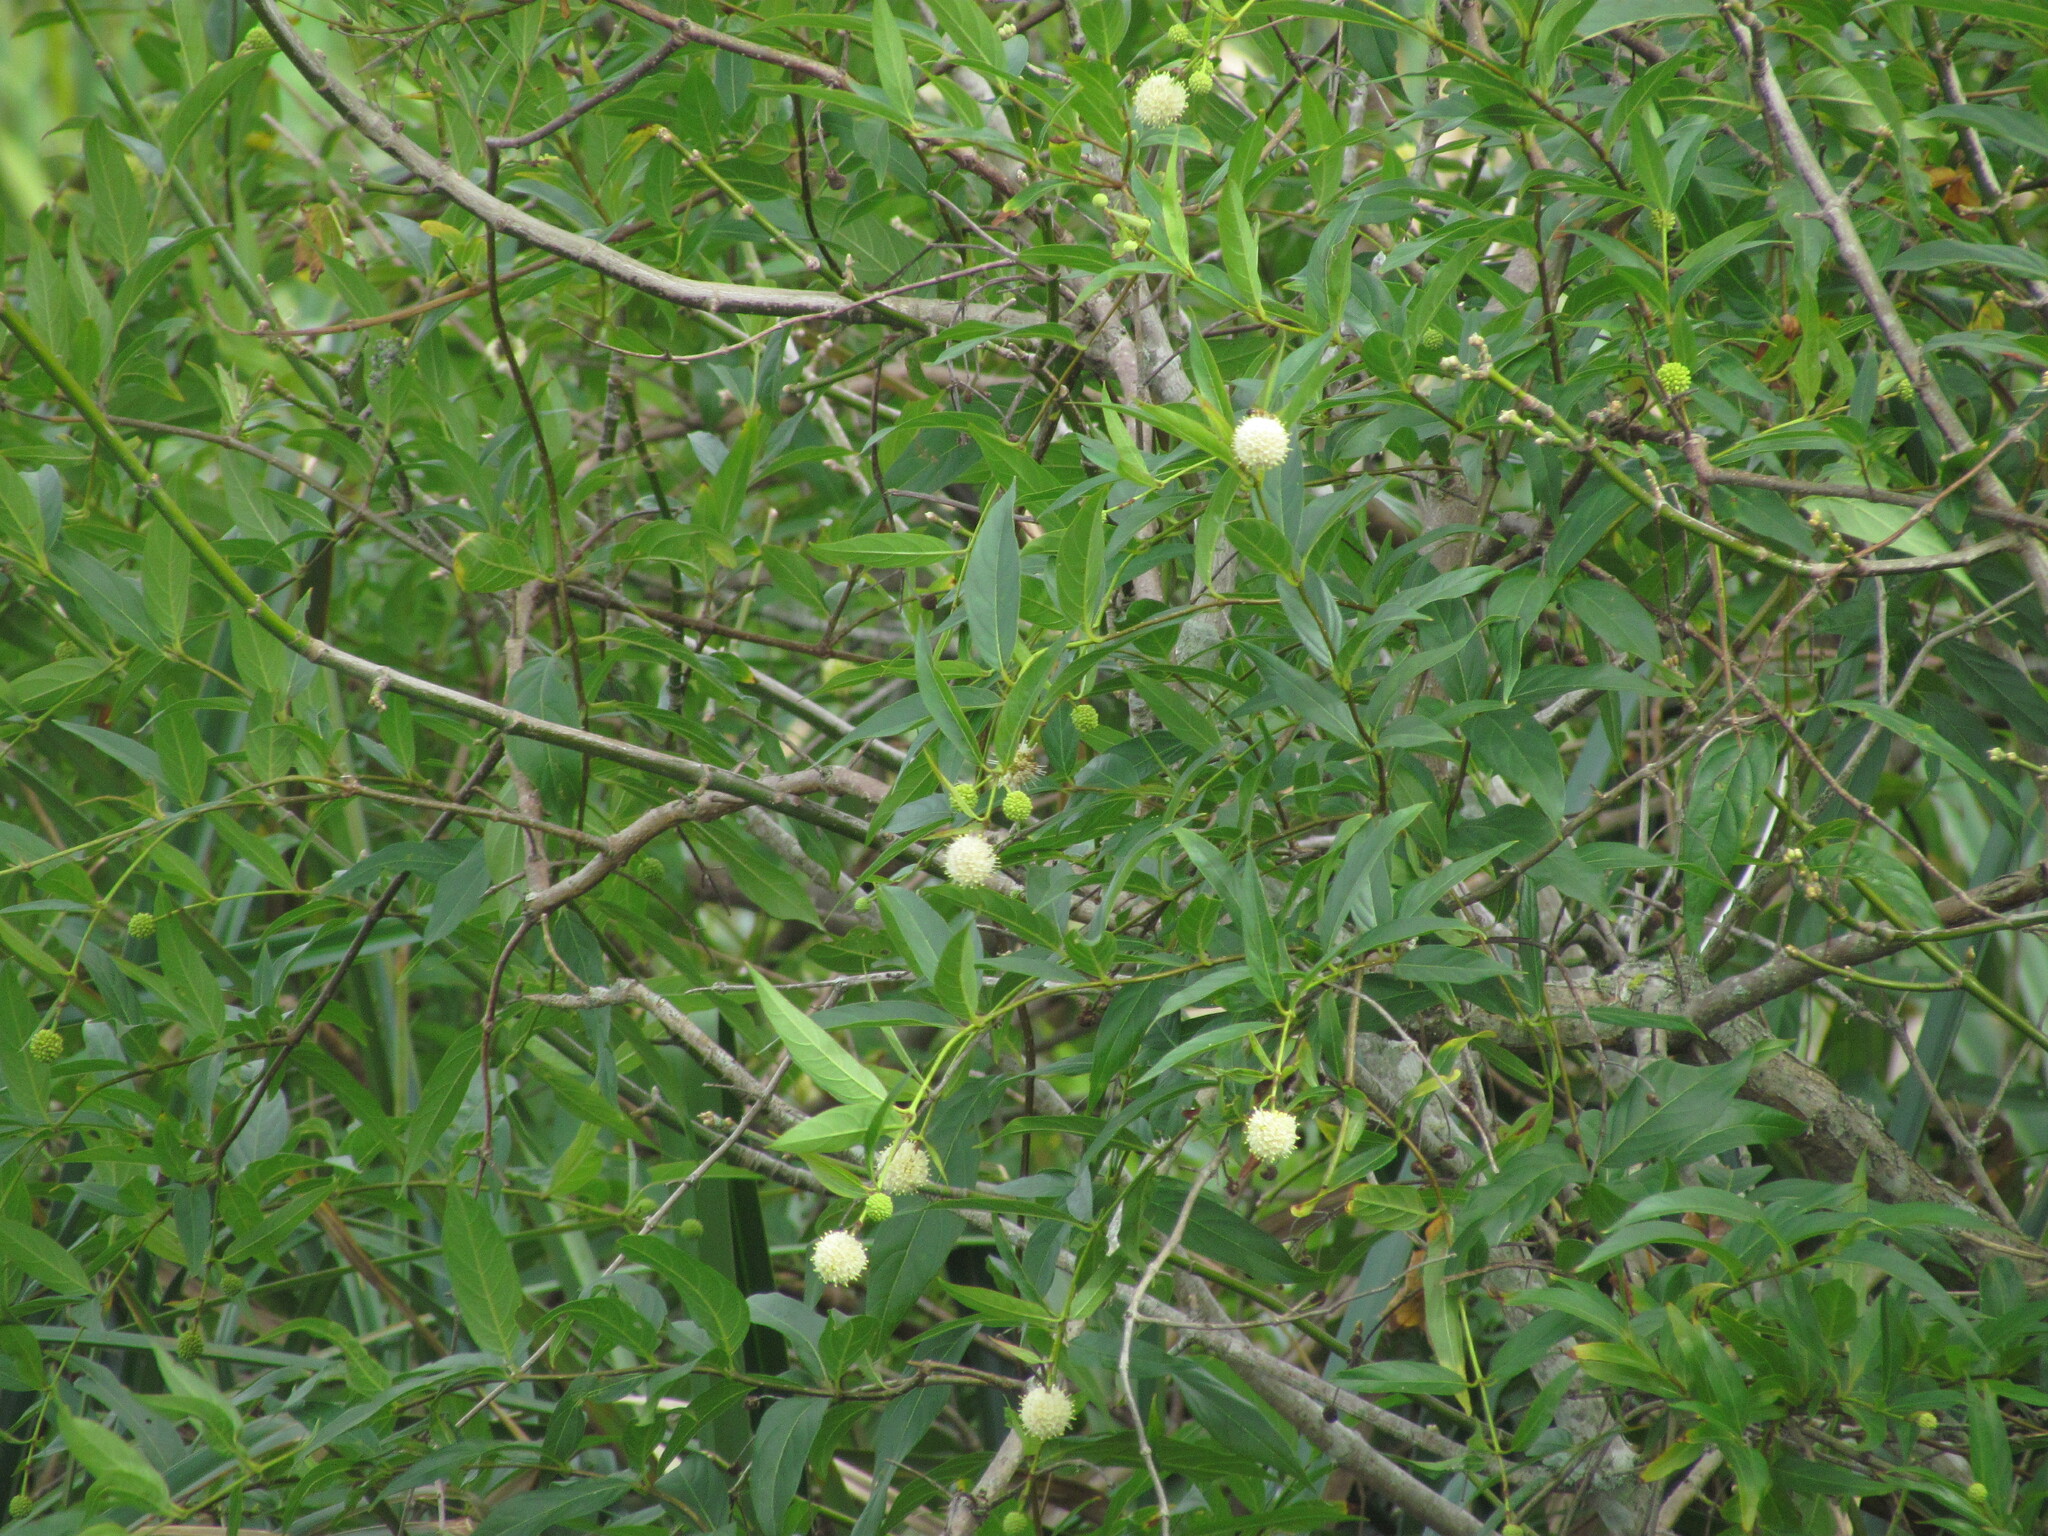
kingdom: Plantae
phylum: Tracheophyta
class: Magnoliopsida
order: Gentianales
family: Rubiaceae
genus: Cephalanthus
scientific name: Cephalanthus glabratus
